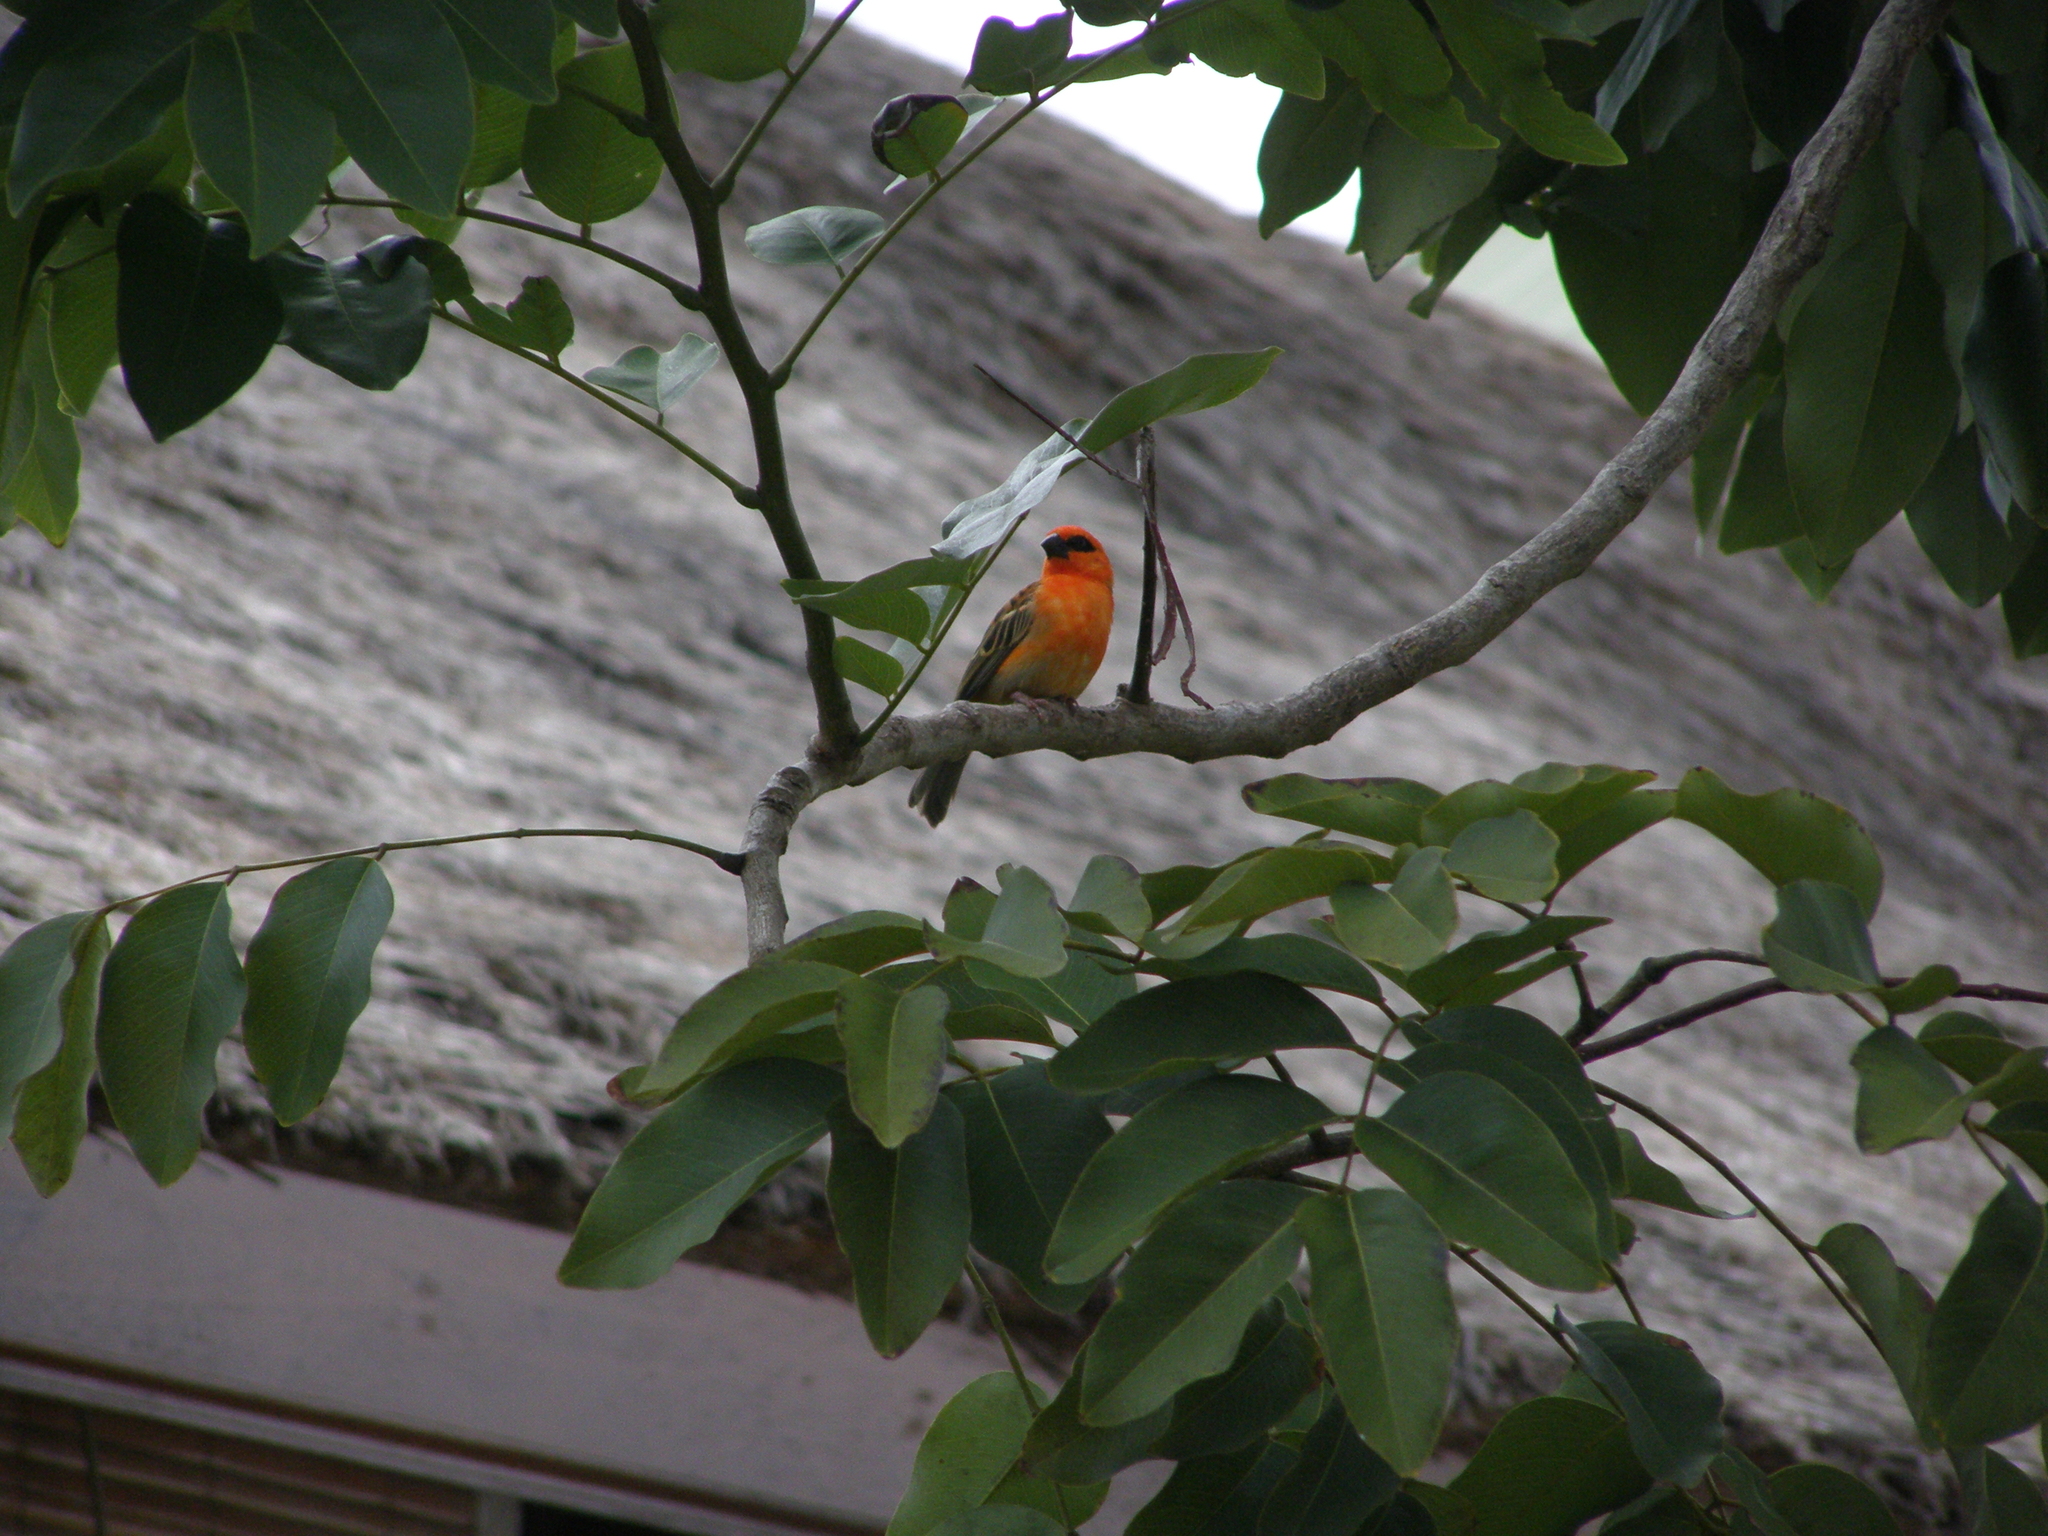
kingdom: Animalia
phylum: Chordata
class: Aves
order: Passeriformes
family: Ploceidae
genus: Foudia
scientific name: Foudia madagascariensis
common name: Red fody
